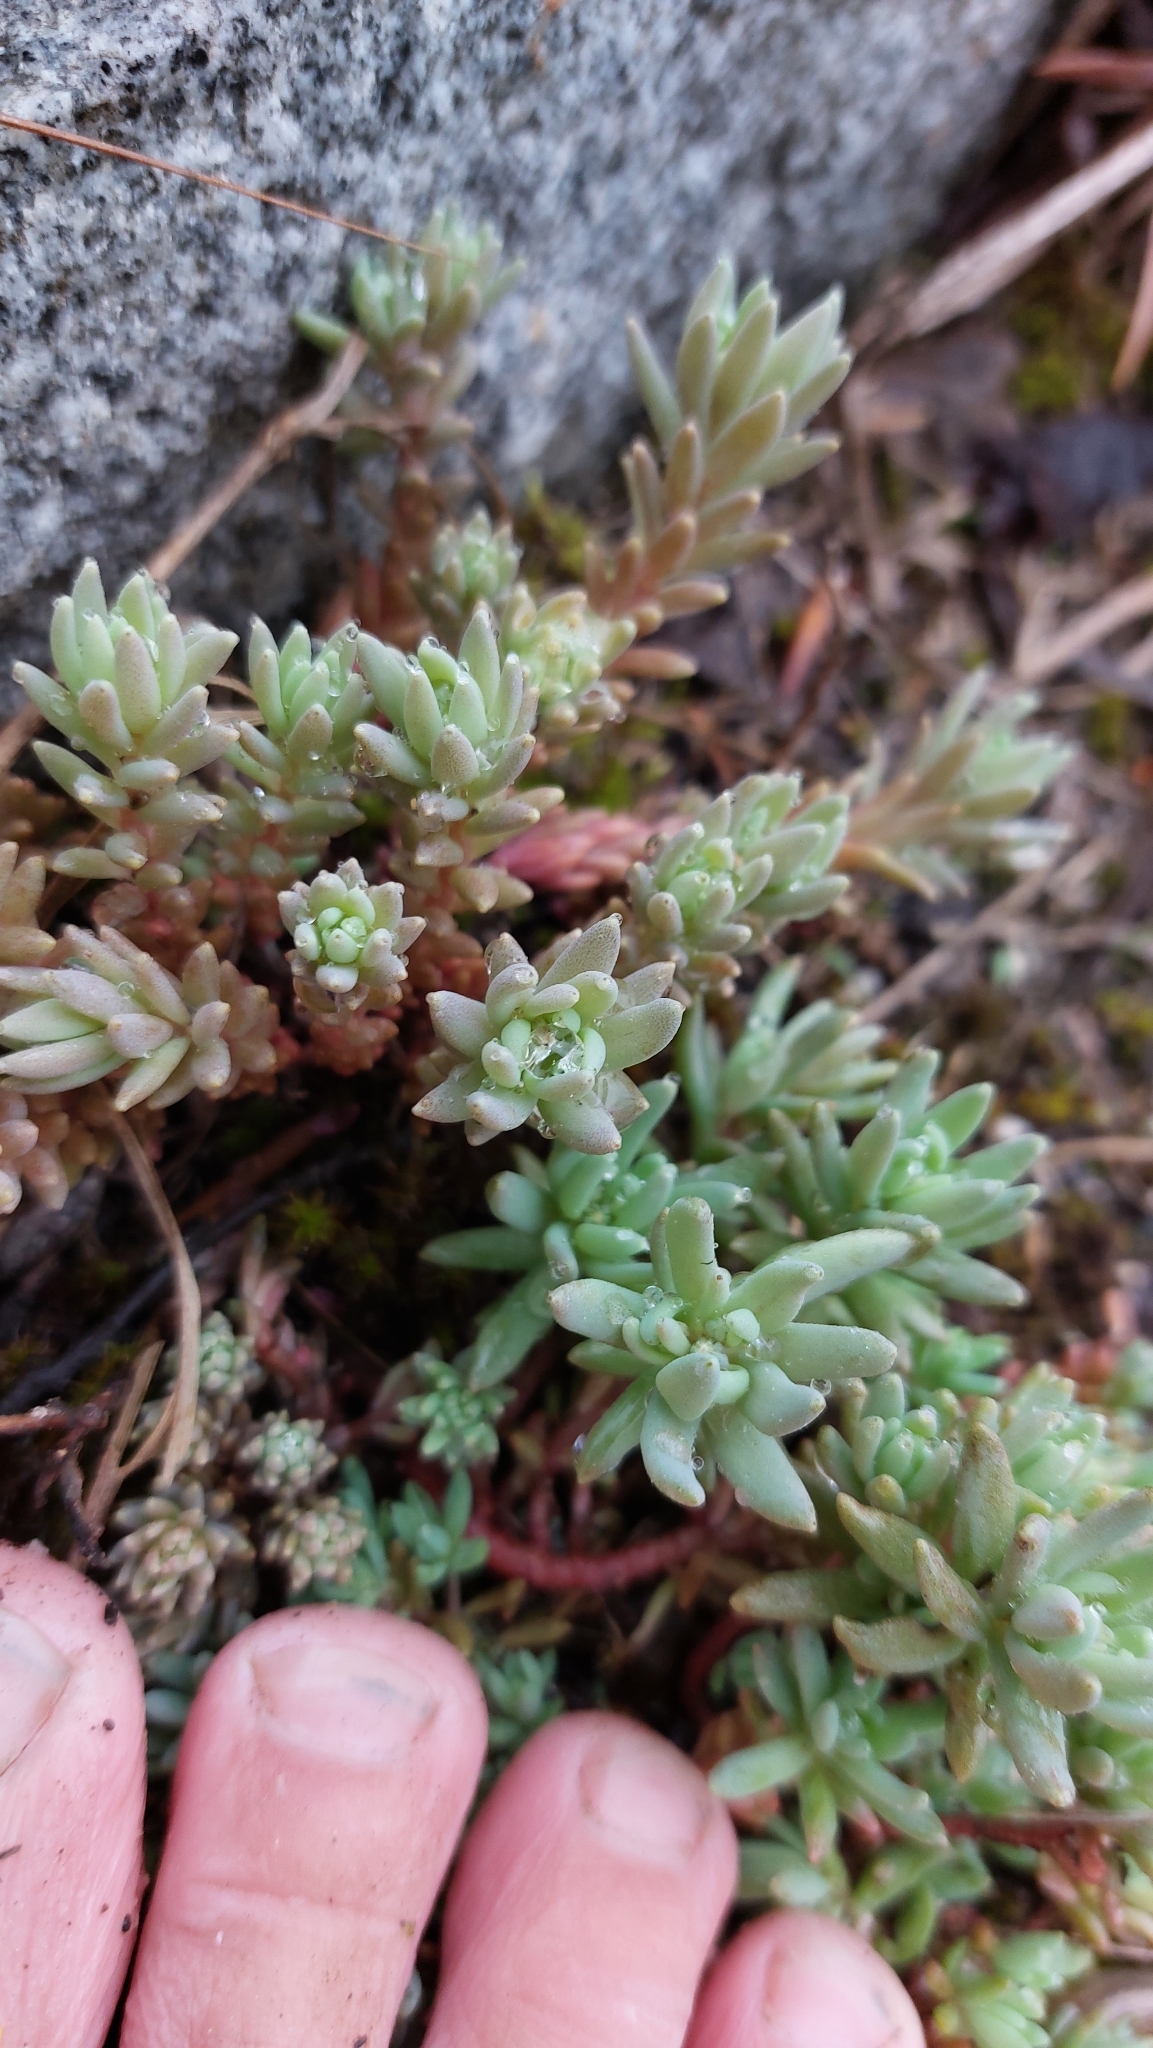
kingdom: Plantae
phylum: Tracheophyta
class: Magnoliopsida
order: Saxifragales
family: Crassulaceae
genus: Sedum
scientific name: Sedum hispanicum
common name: Spanish stonecrop
